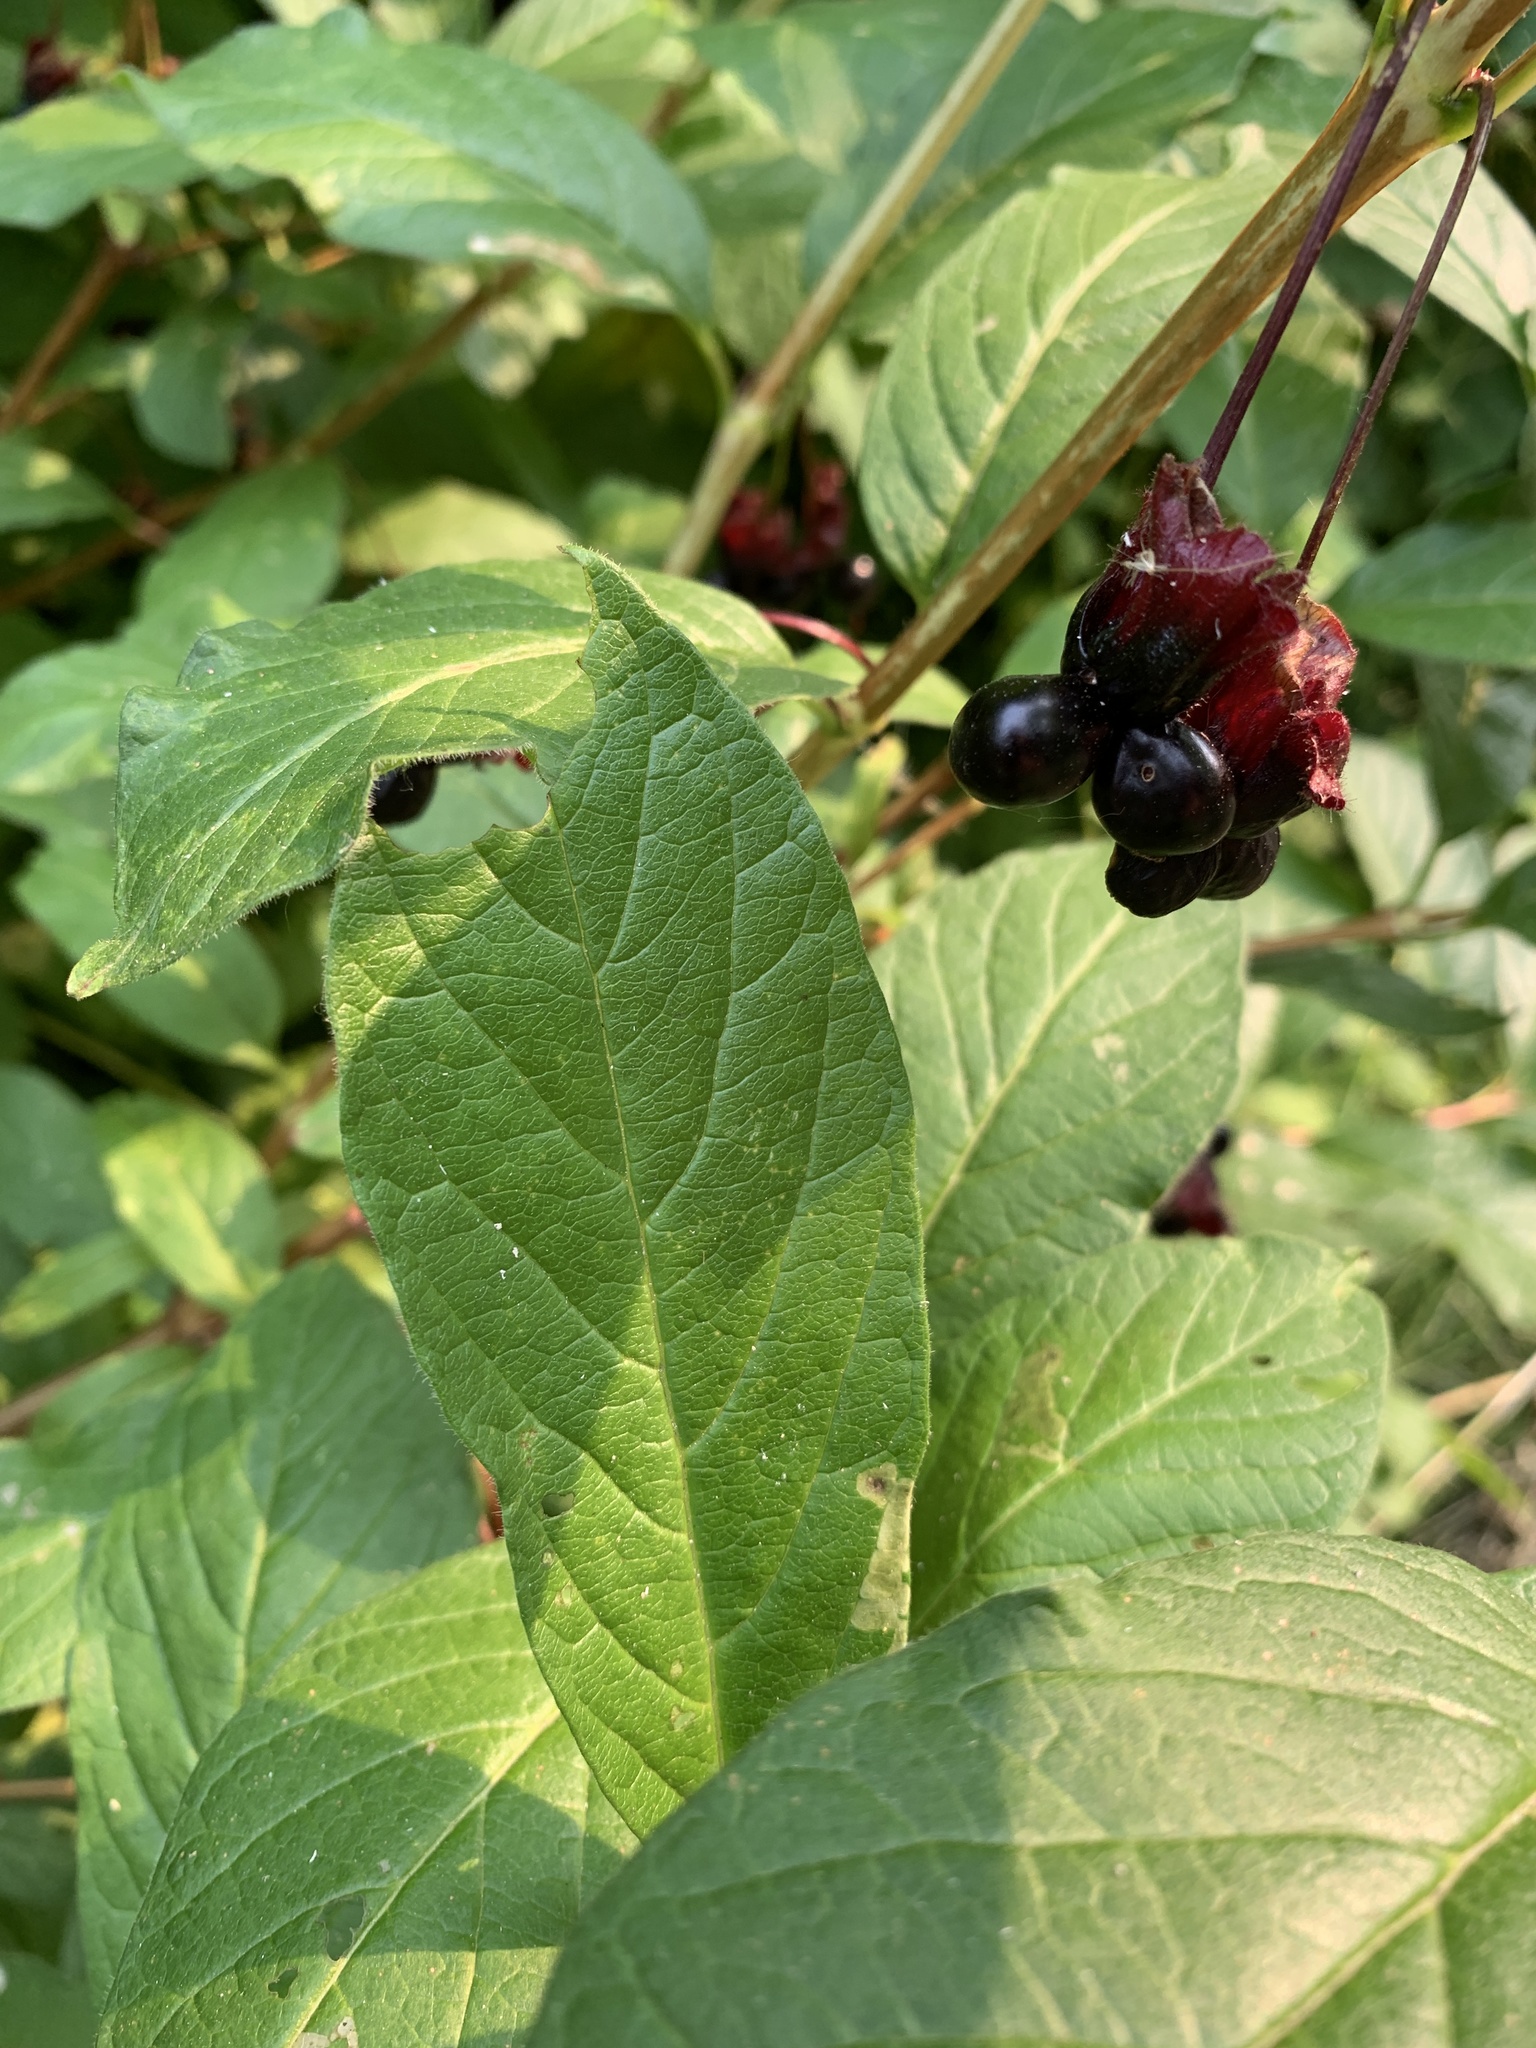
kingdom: Plantae
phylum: Tracheophyta
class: Magnoliopsida
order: Dipsacales
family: Caprifoliaceae
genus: Lonicera
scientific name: Lonicera involucrata
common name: Californian honeysuckle
